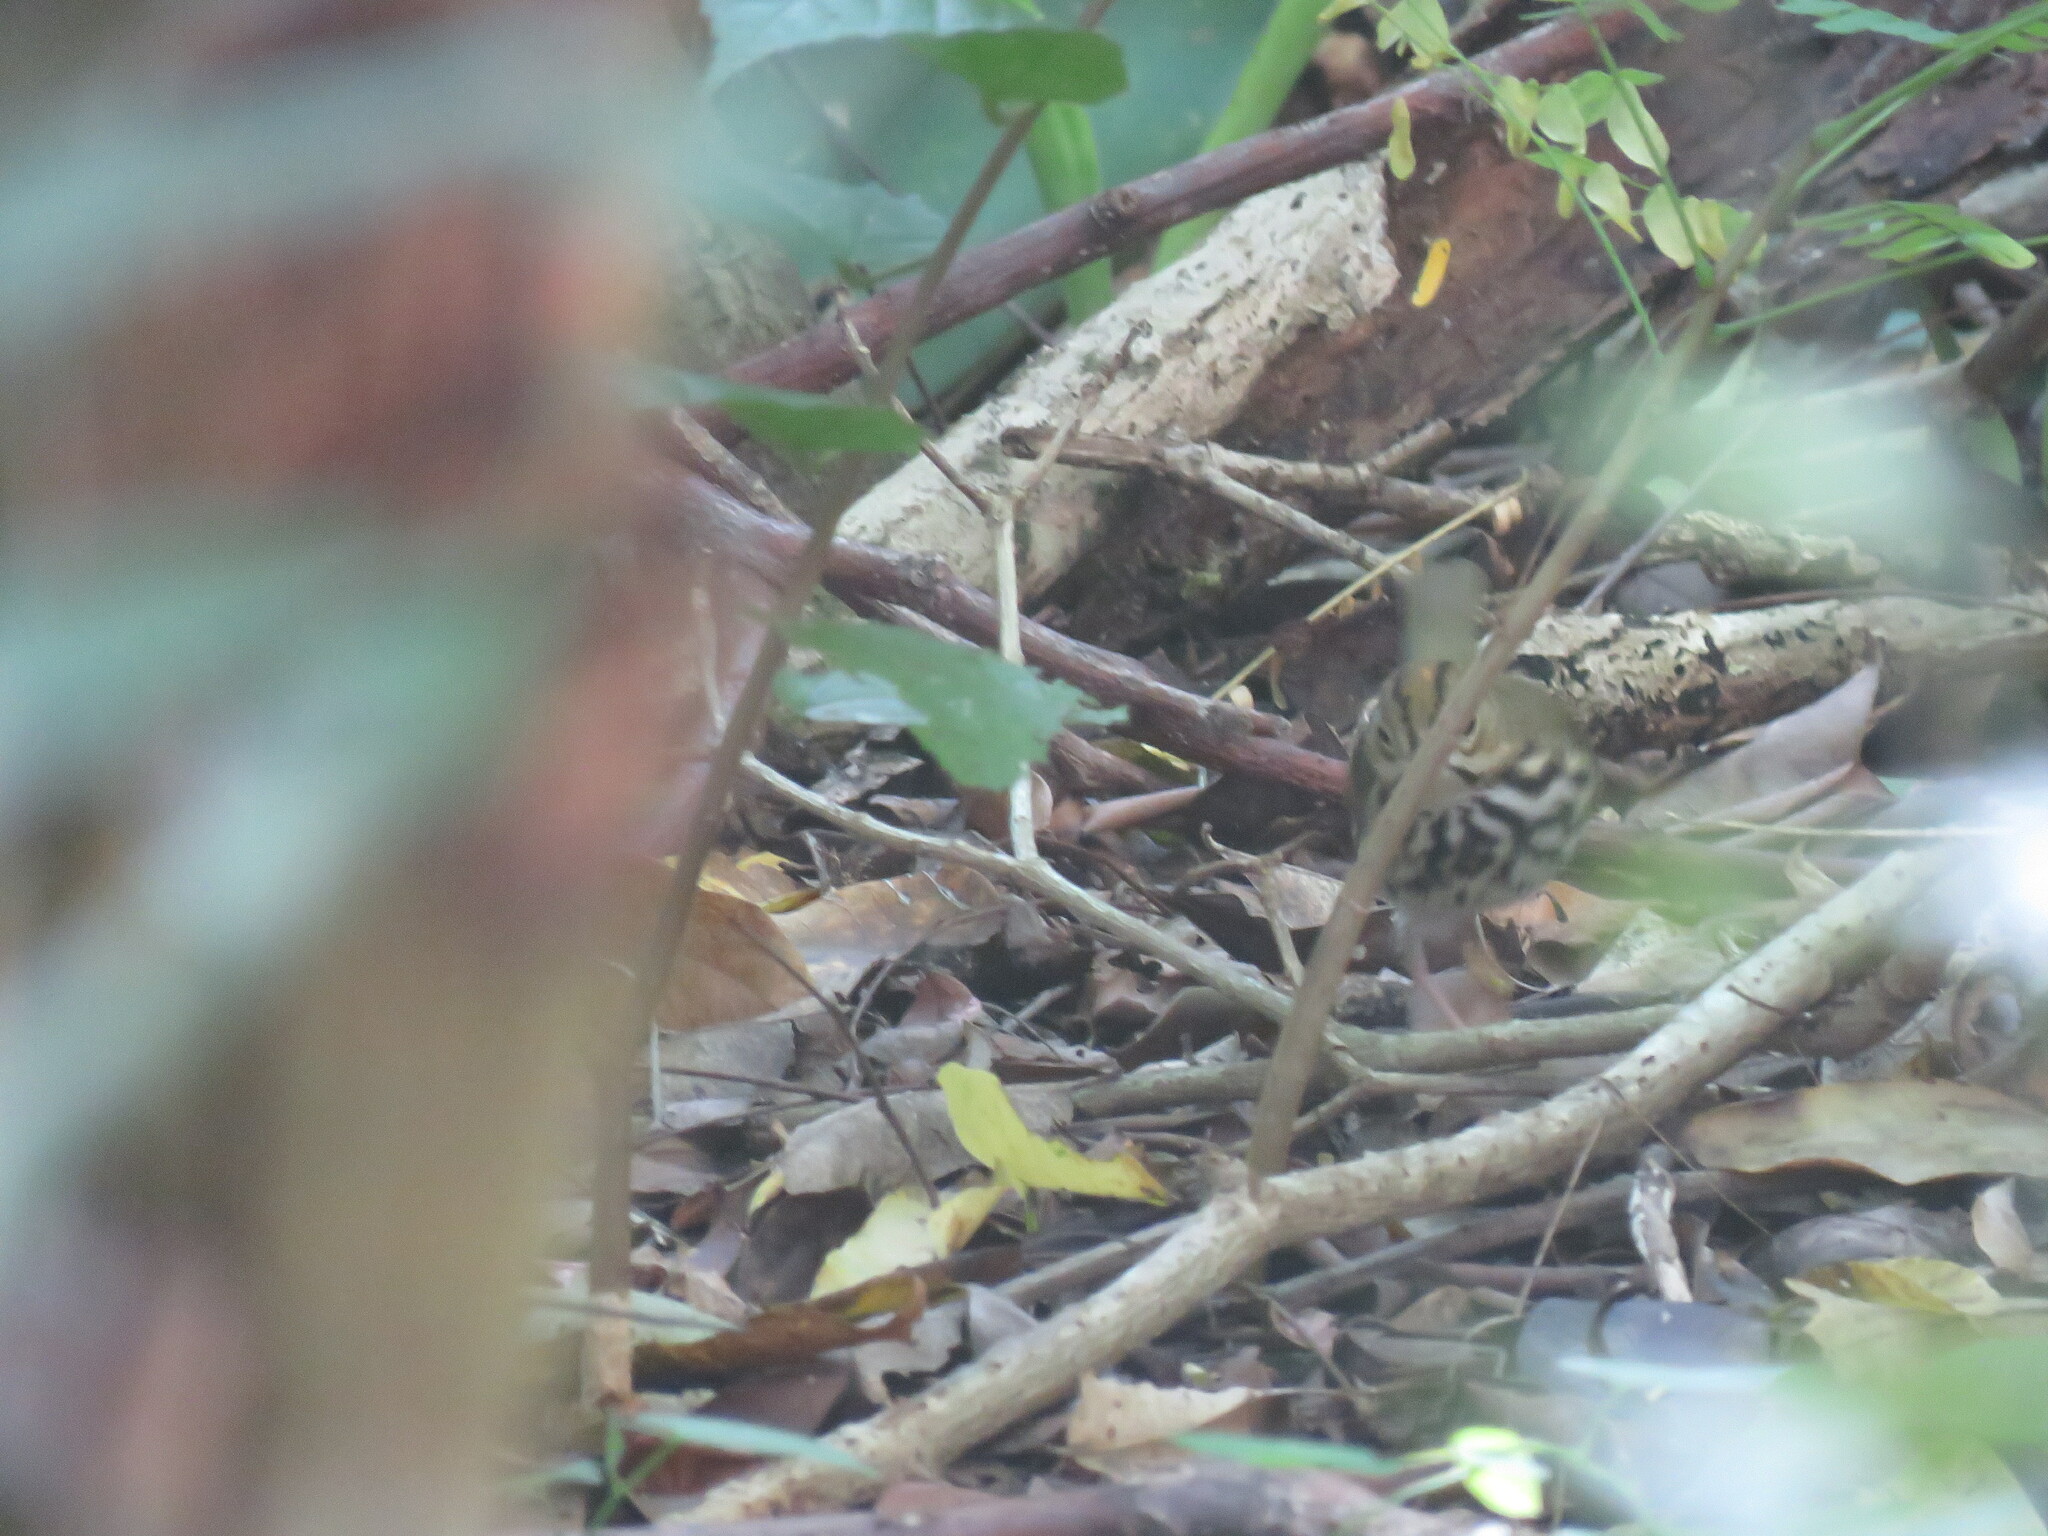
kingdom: Animalia
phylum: Chordata
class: Aves
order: Passeriformes
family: Parulidae
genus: Seiurus
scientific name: Seiurus aurocapilla
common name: Ovenbird
